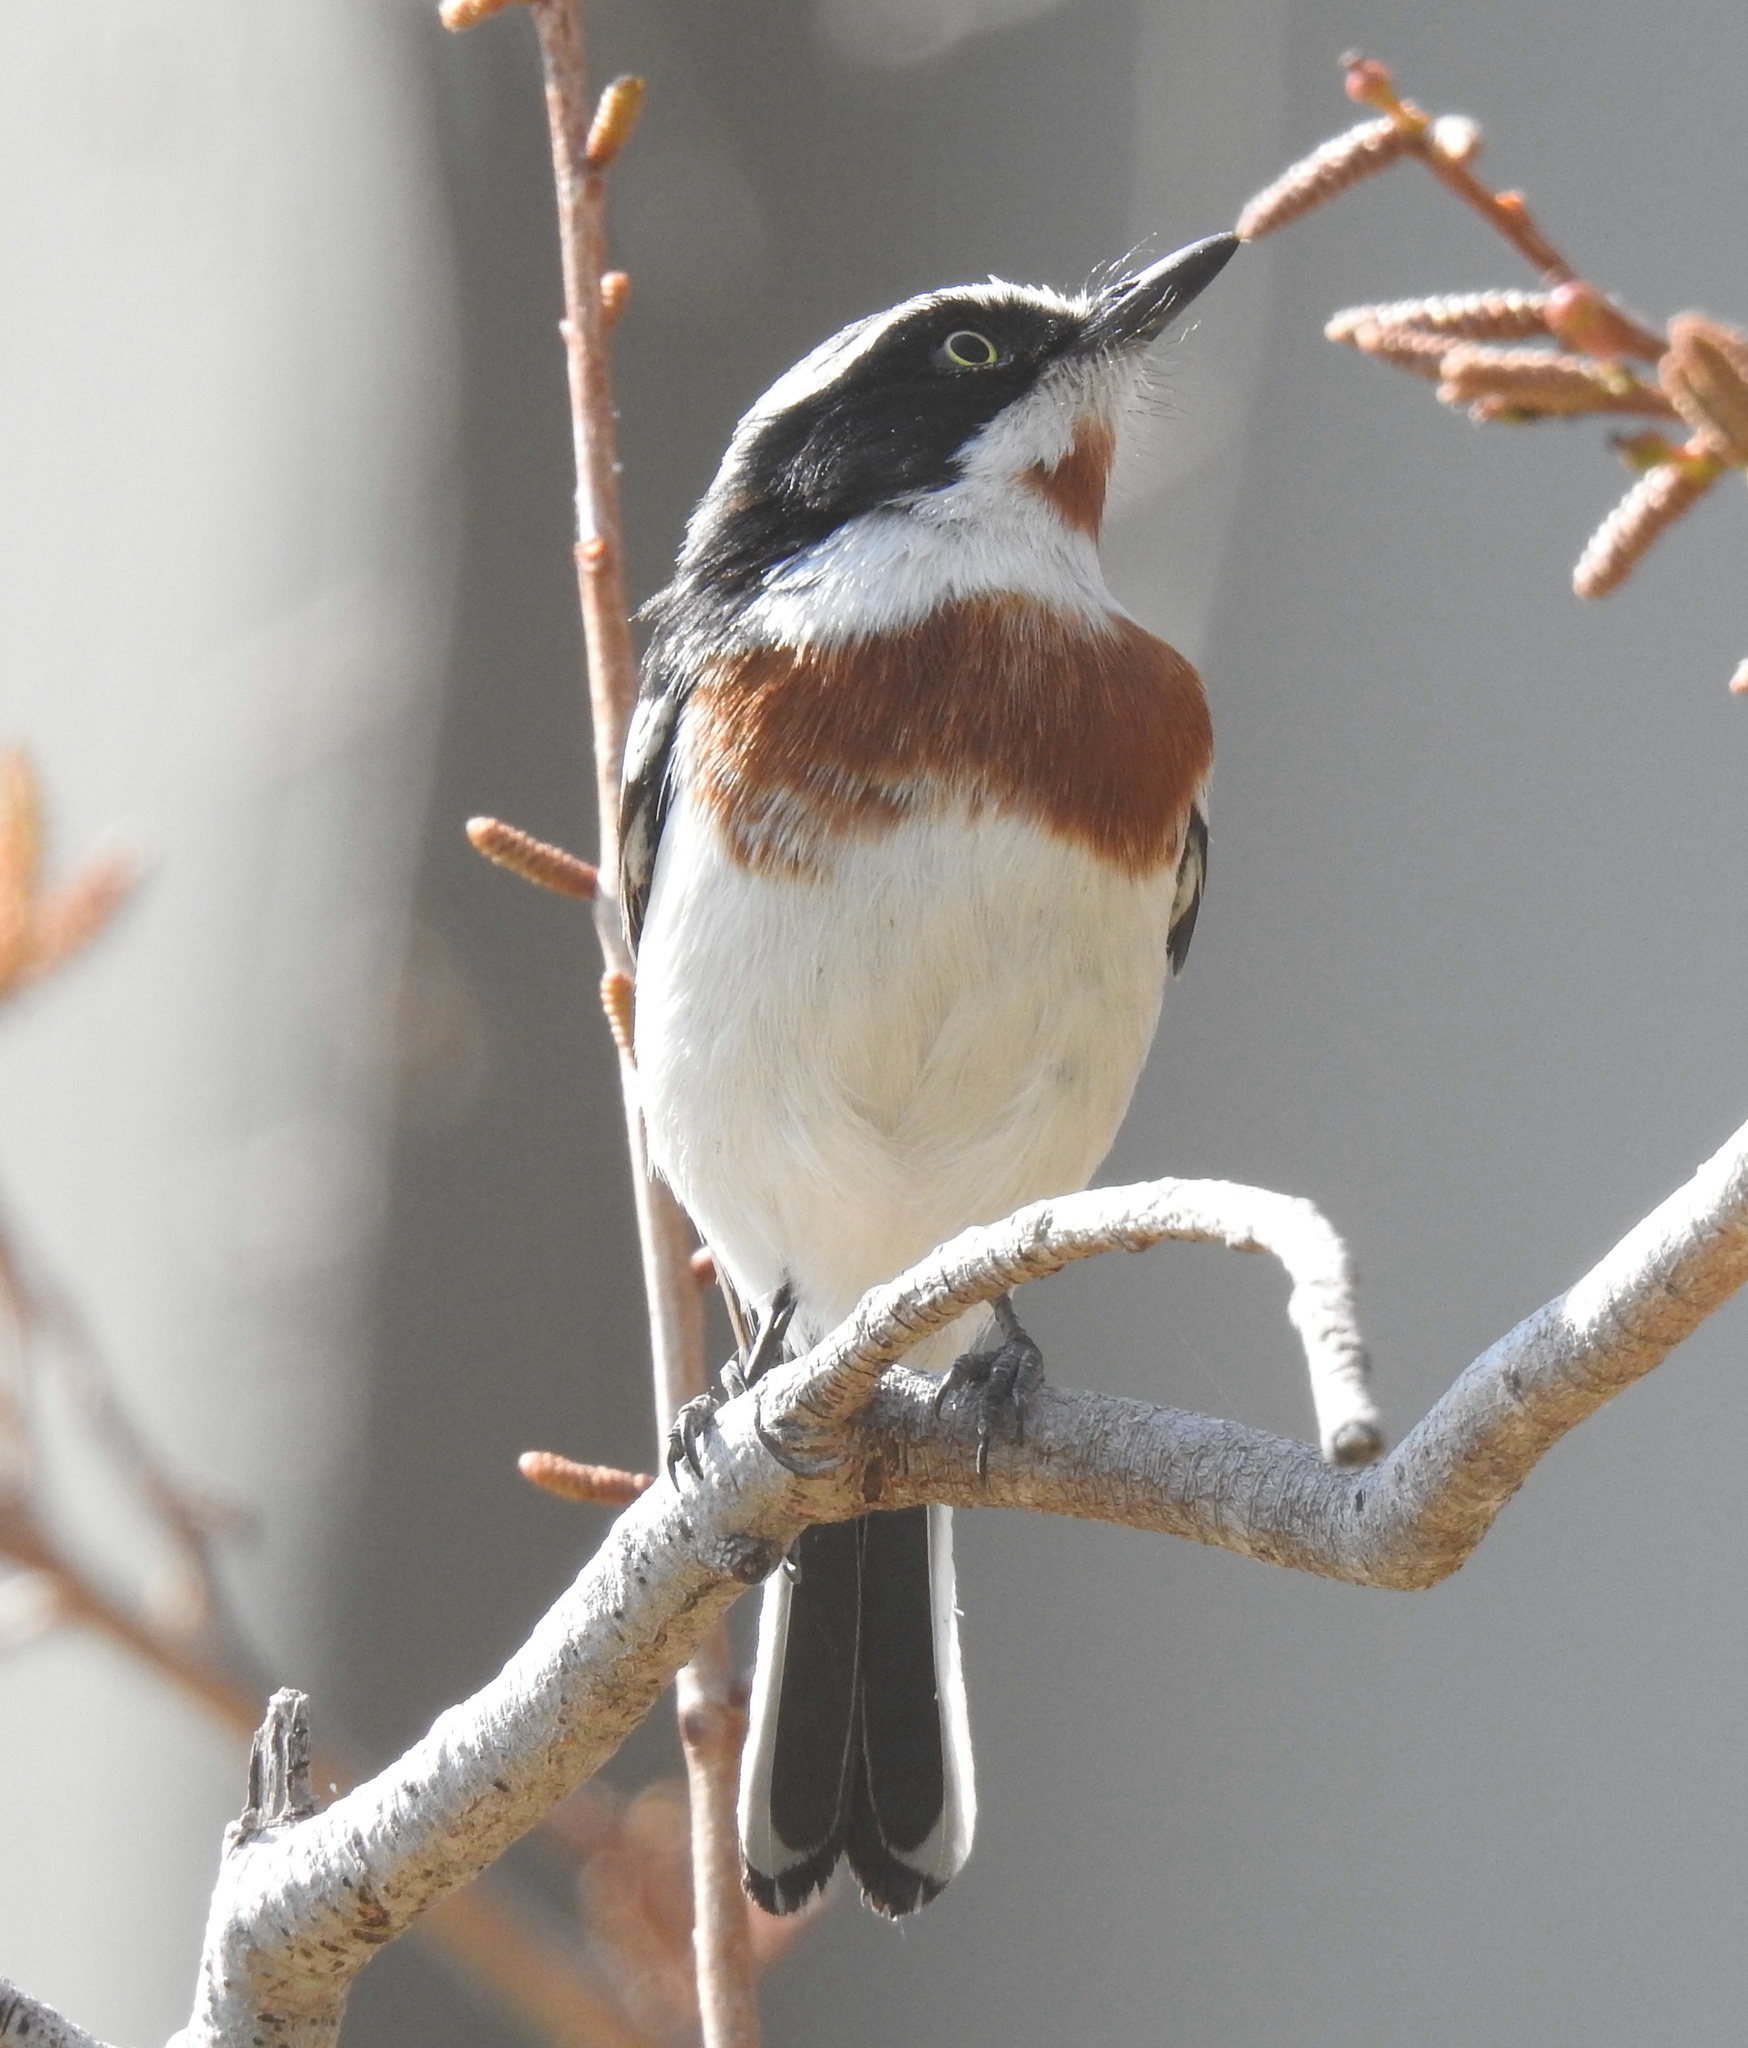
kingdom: Animalia
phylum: Chordata
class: Aves
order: Passeriformes
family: Platysteiridae
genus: Batis
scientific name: Batis molitor
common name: Chinspot batis
